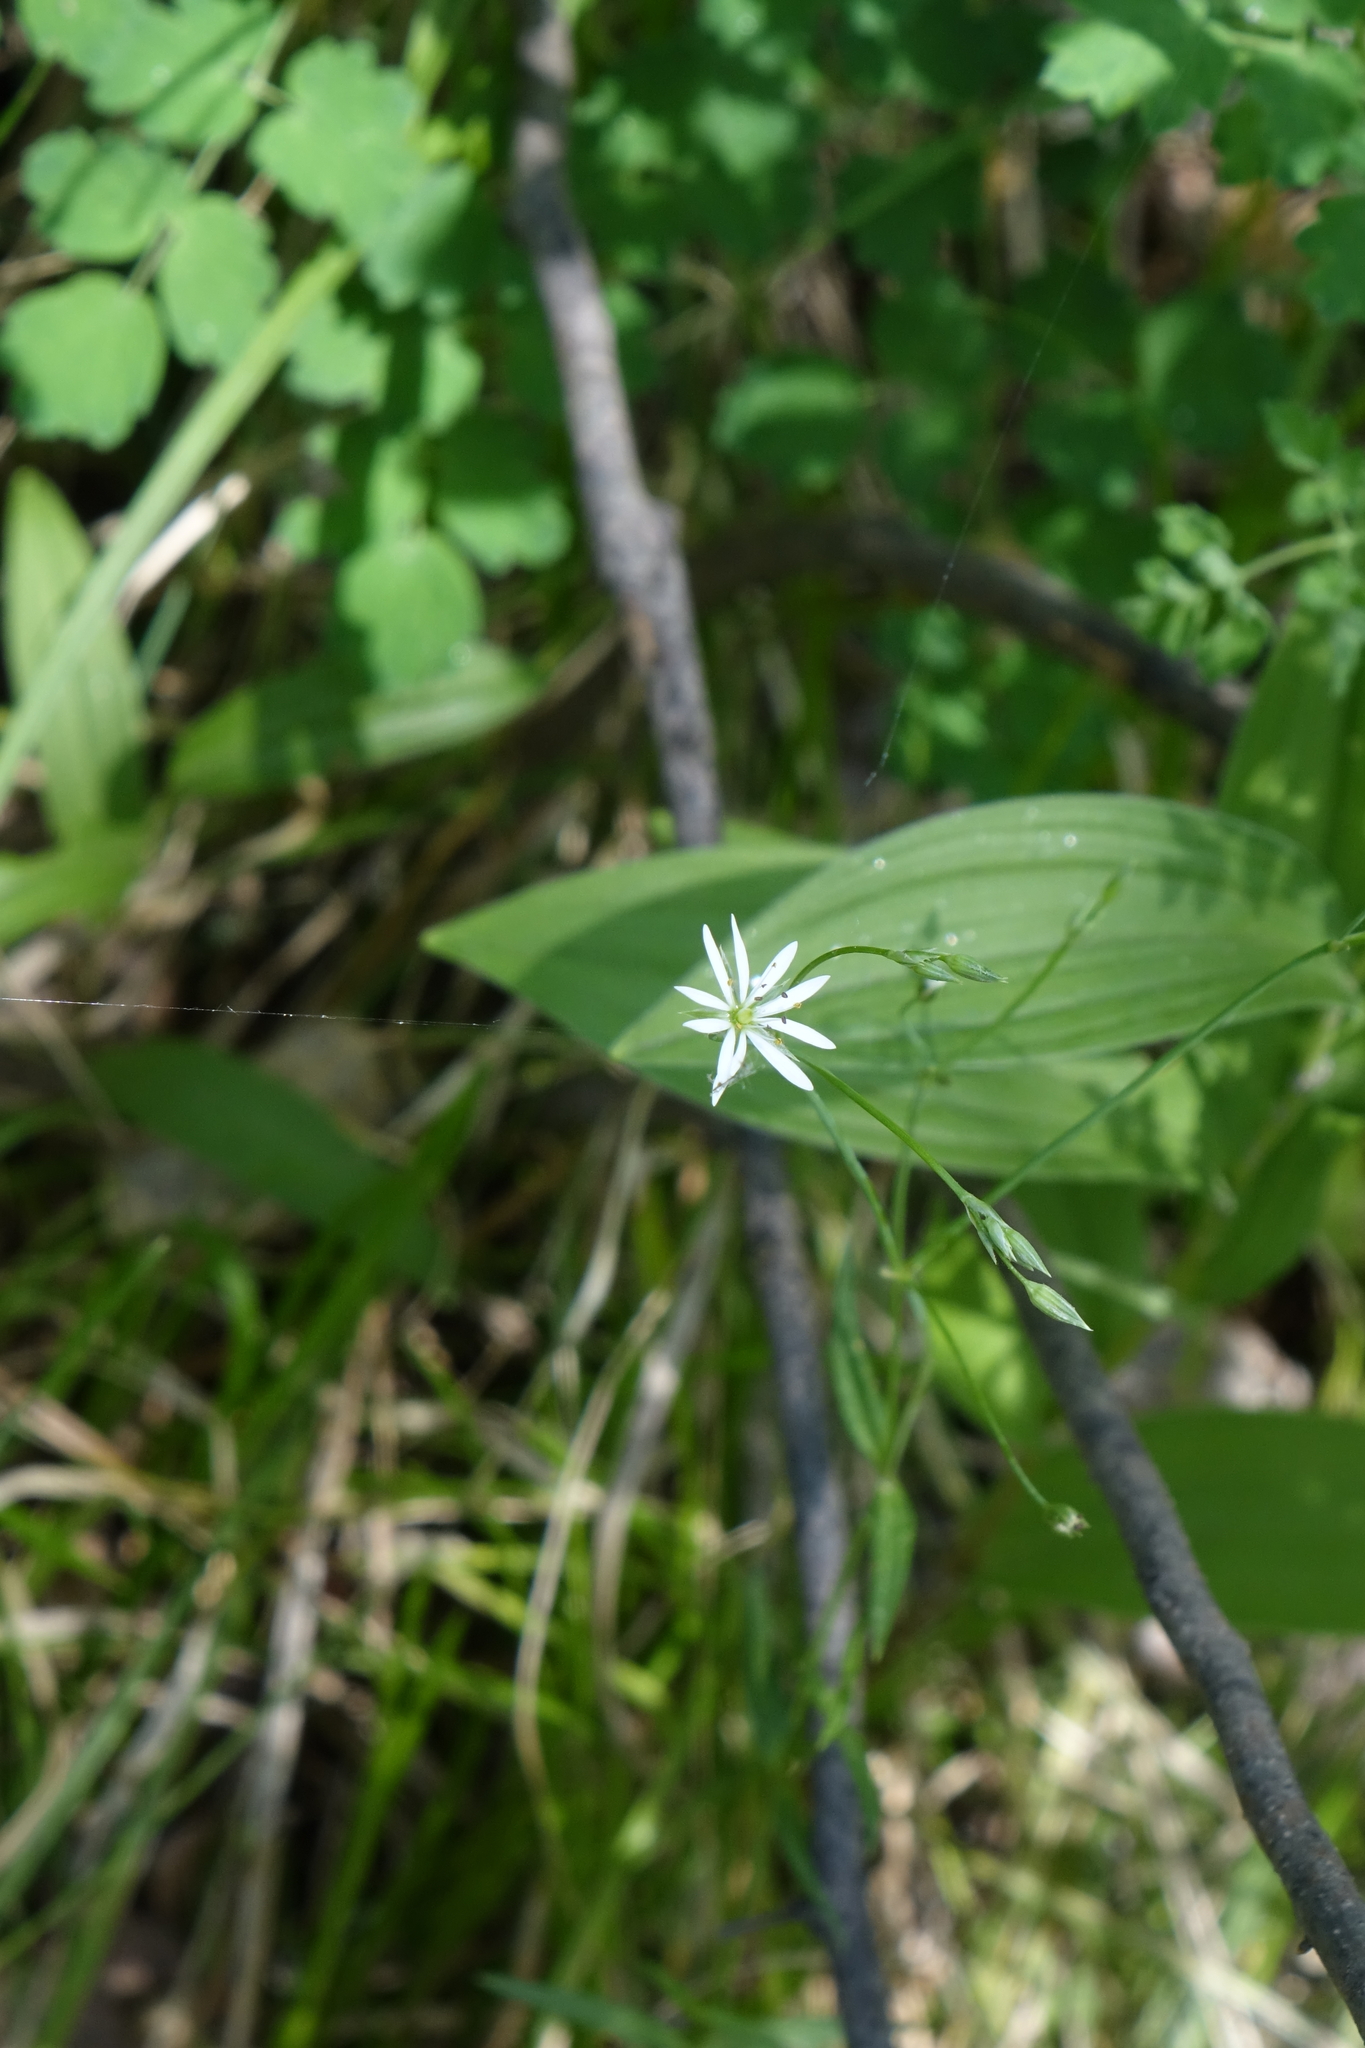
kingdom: Plantae
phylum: Tracheophyta
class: Magnoliopsida
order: Caryophyllales
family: Caryophyllaceae
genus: Stellaria
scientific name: Stellaria graminea
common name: Grass-like starwort
